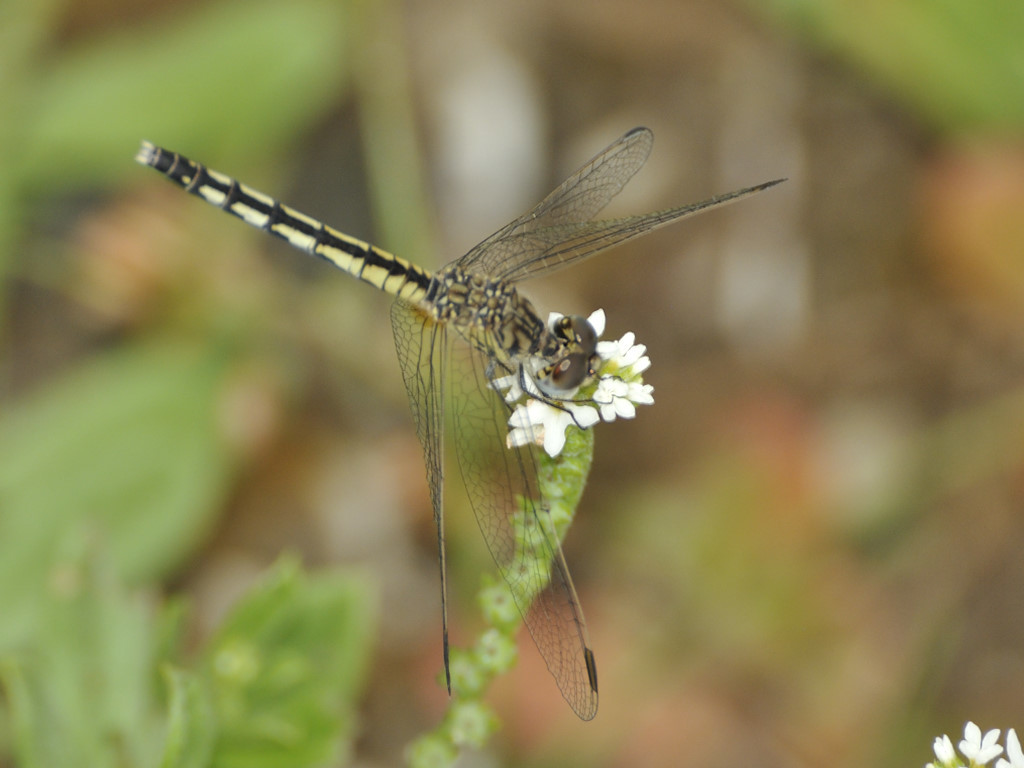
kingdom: Animalia
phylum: Arthropoda
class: Insecta
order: Odonata
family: Libellulidae
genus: Diplacodes
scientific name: Diplacodes lefebvrii
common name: Black percher
